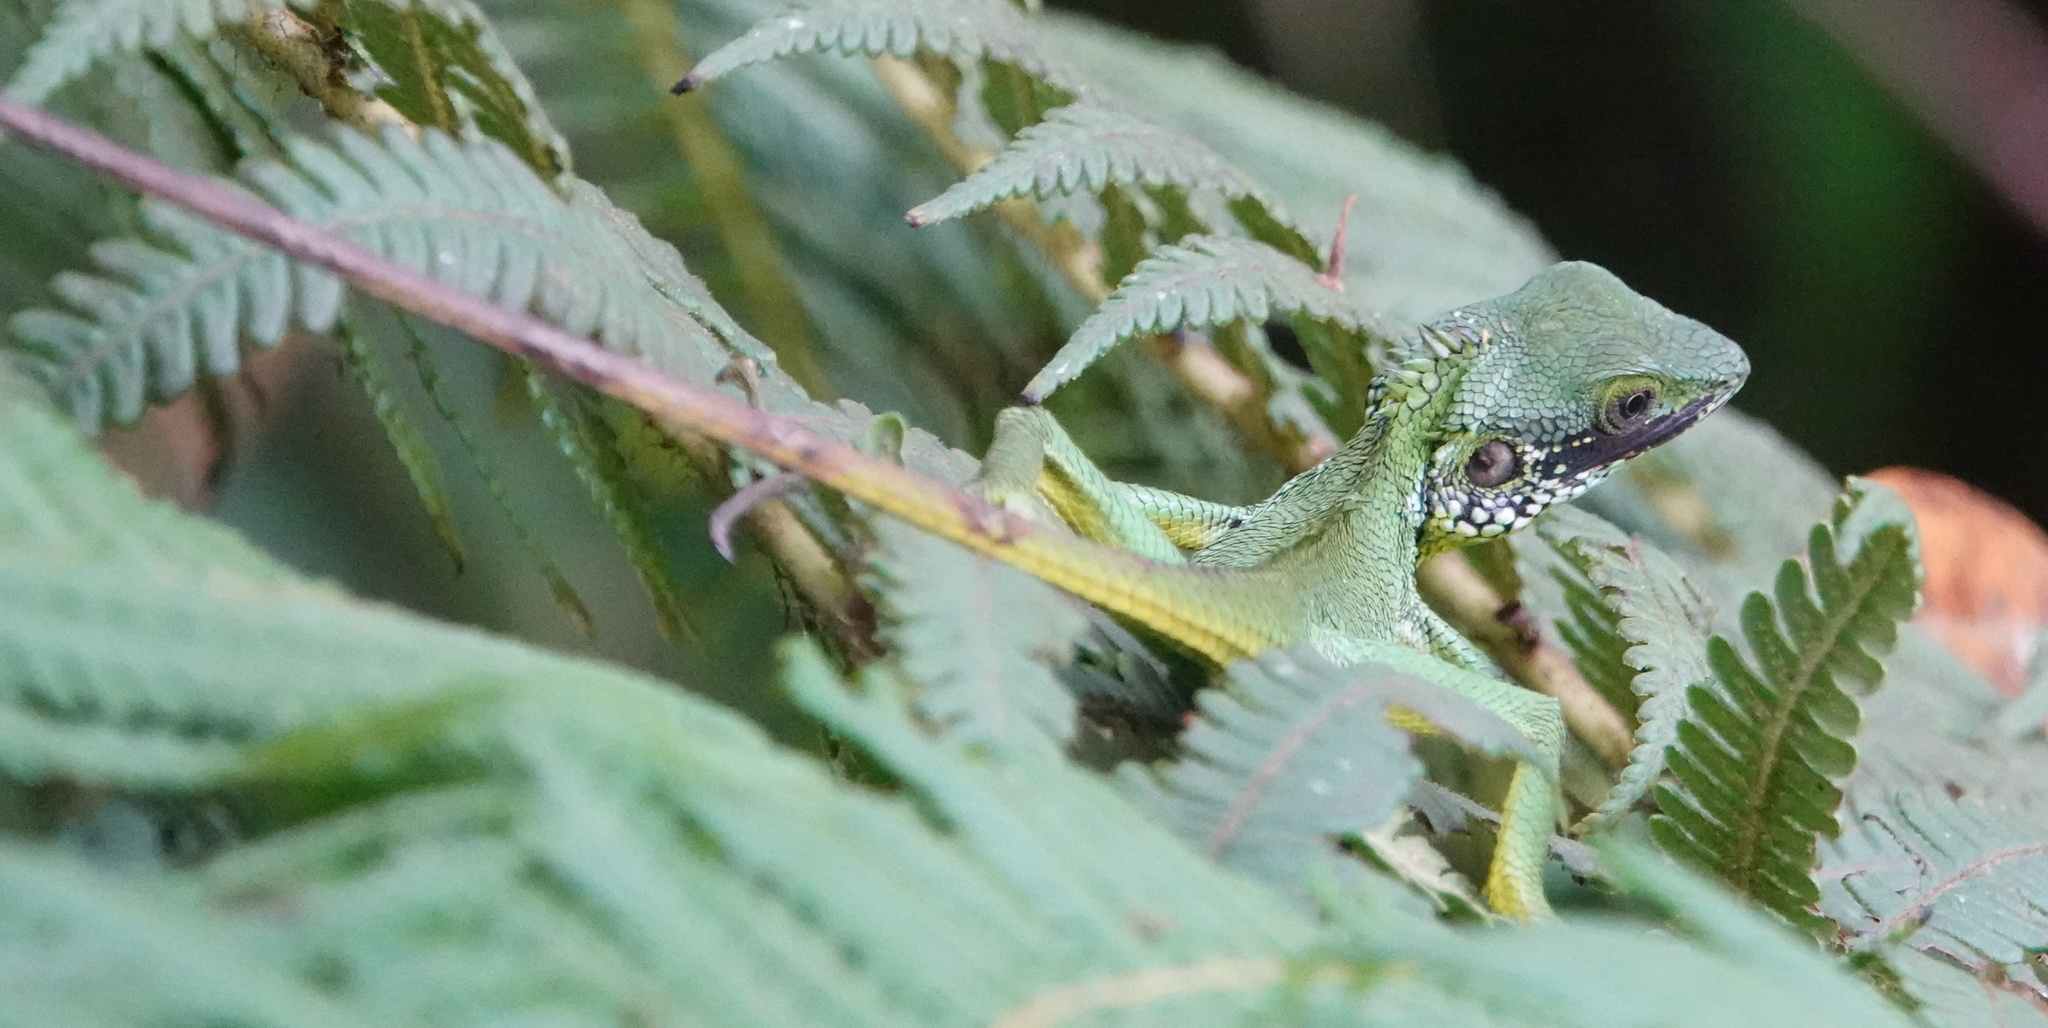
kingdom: Animalia
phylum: Chordata
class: Squamata
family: Agamidae
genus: Calotes
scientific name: Calotes nigrilabris
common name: Black-cheek lizard
